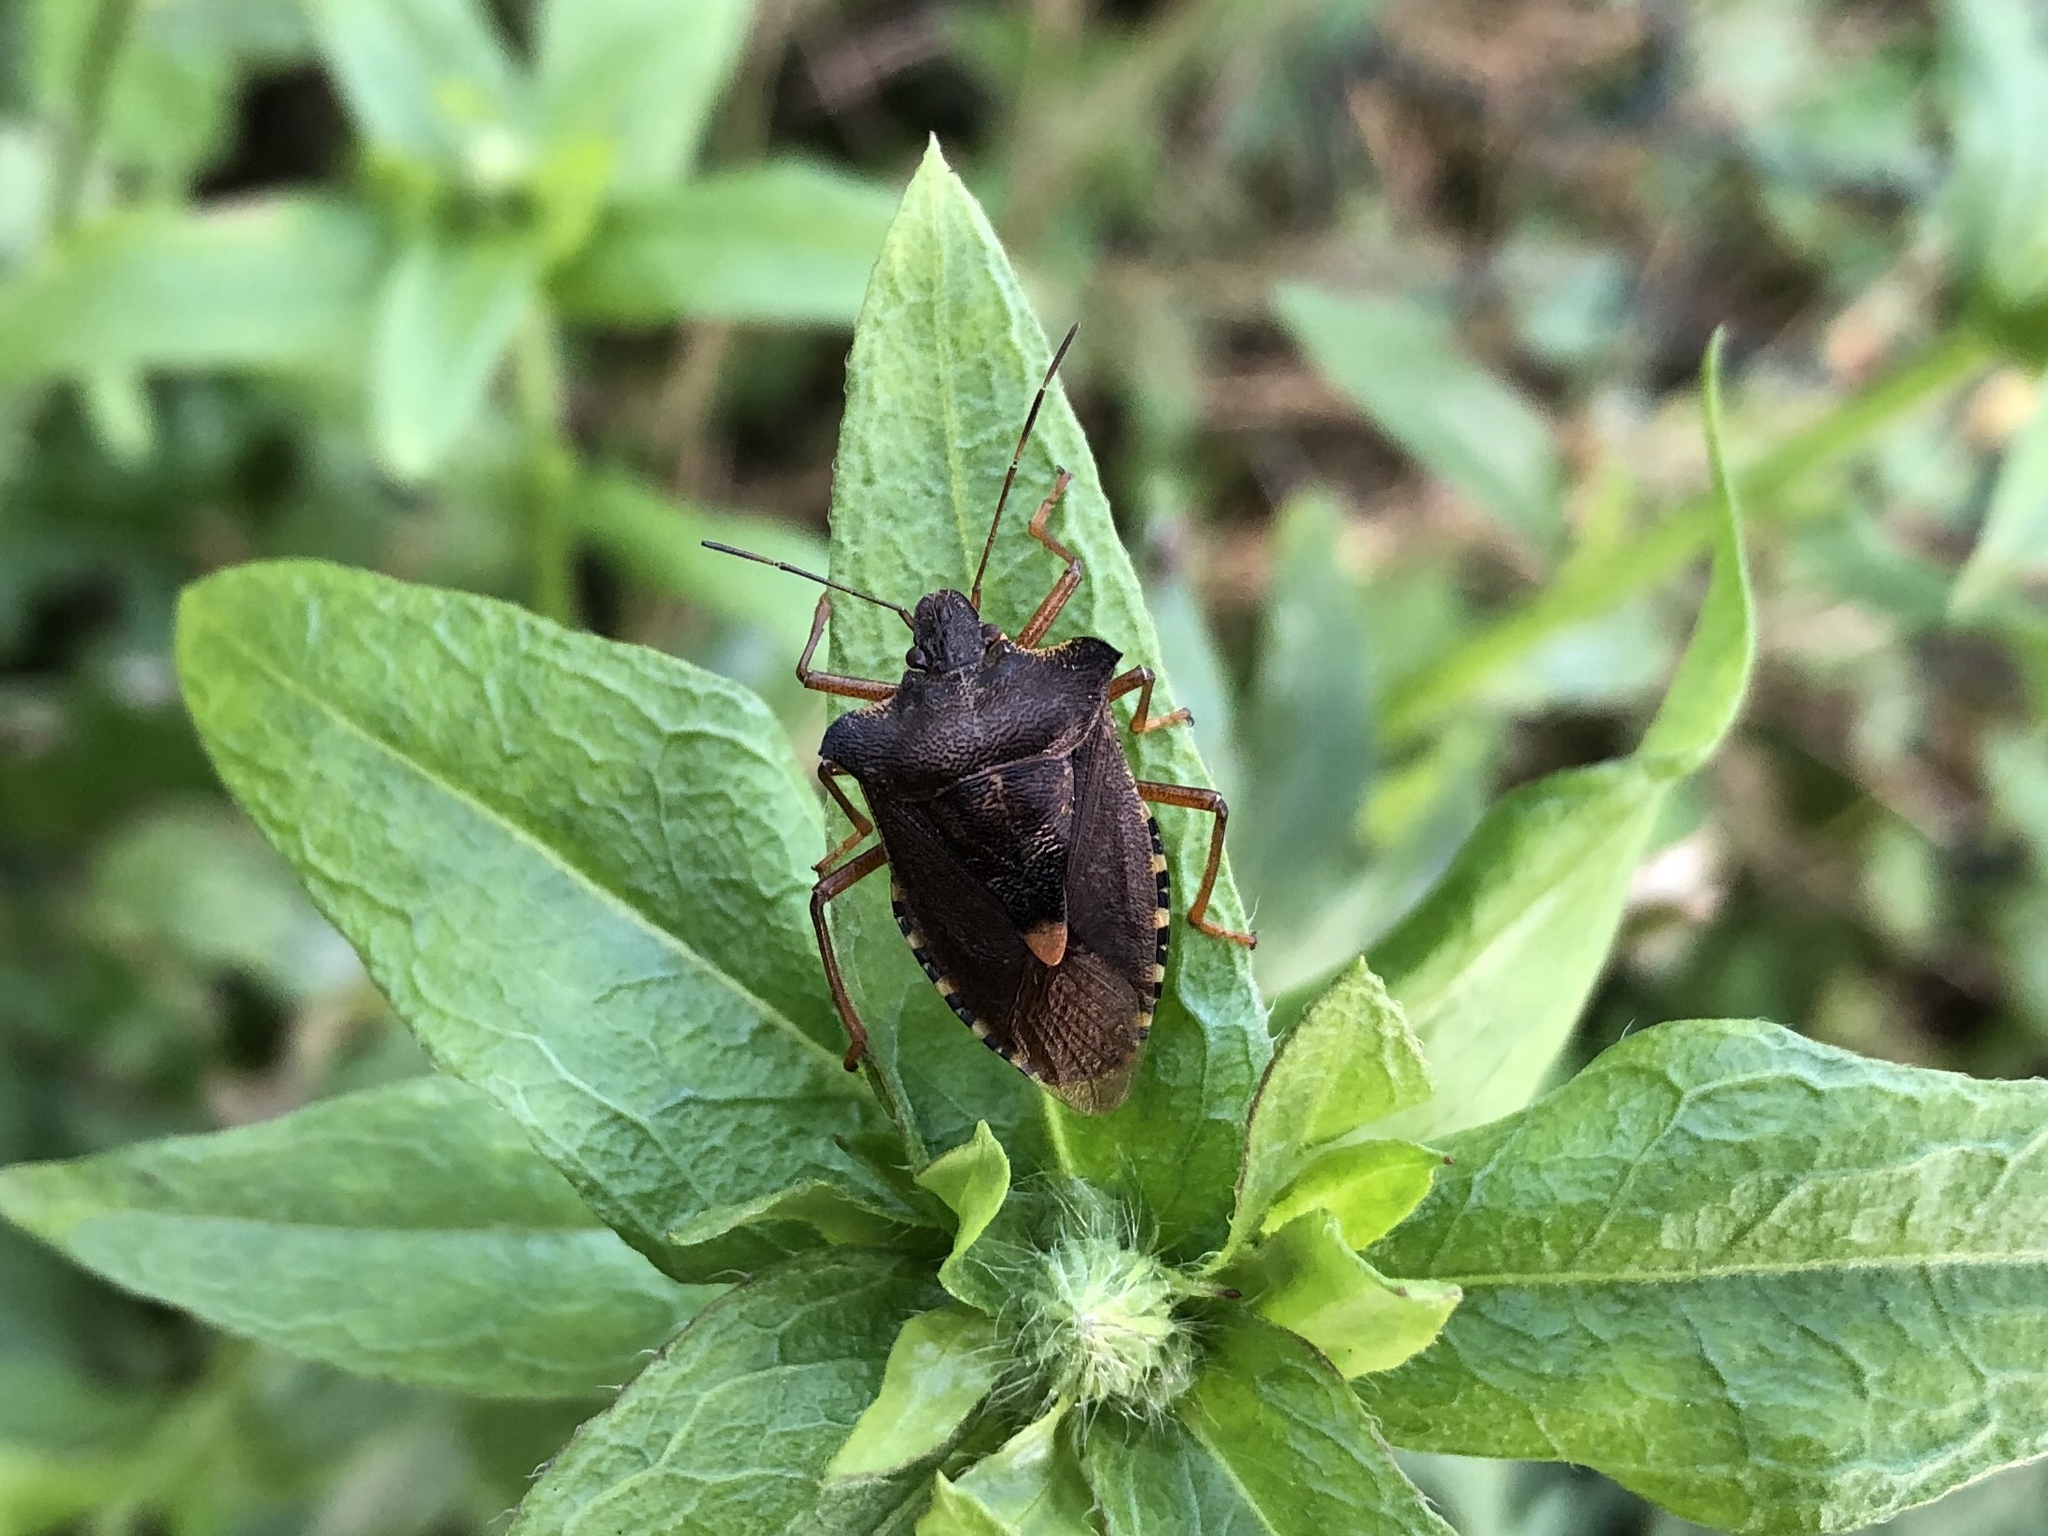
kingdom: Animalia
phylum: Arthropoda
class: Insecta
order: Hemiptera
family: Pentatomidae
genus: Pentatoma
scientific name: Pentatoma rufipes
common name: Forest bug
